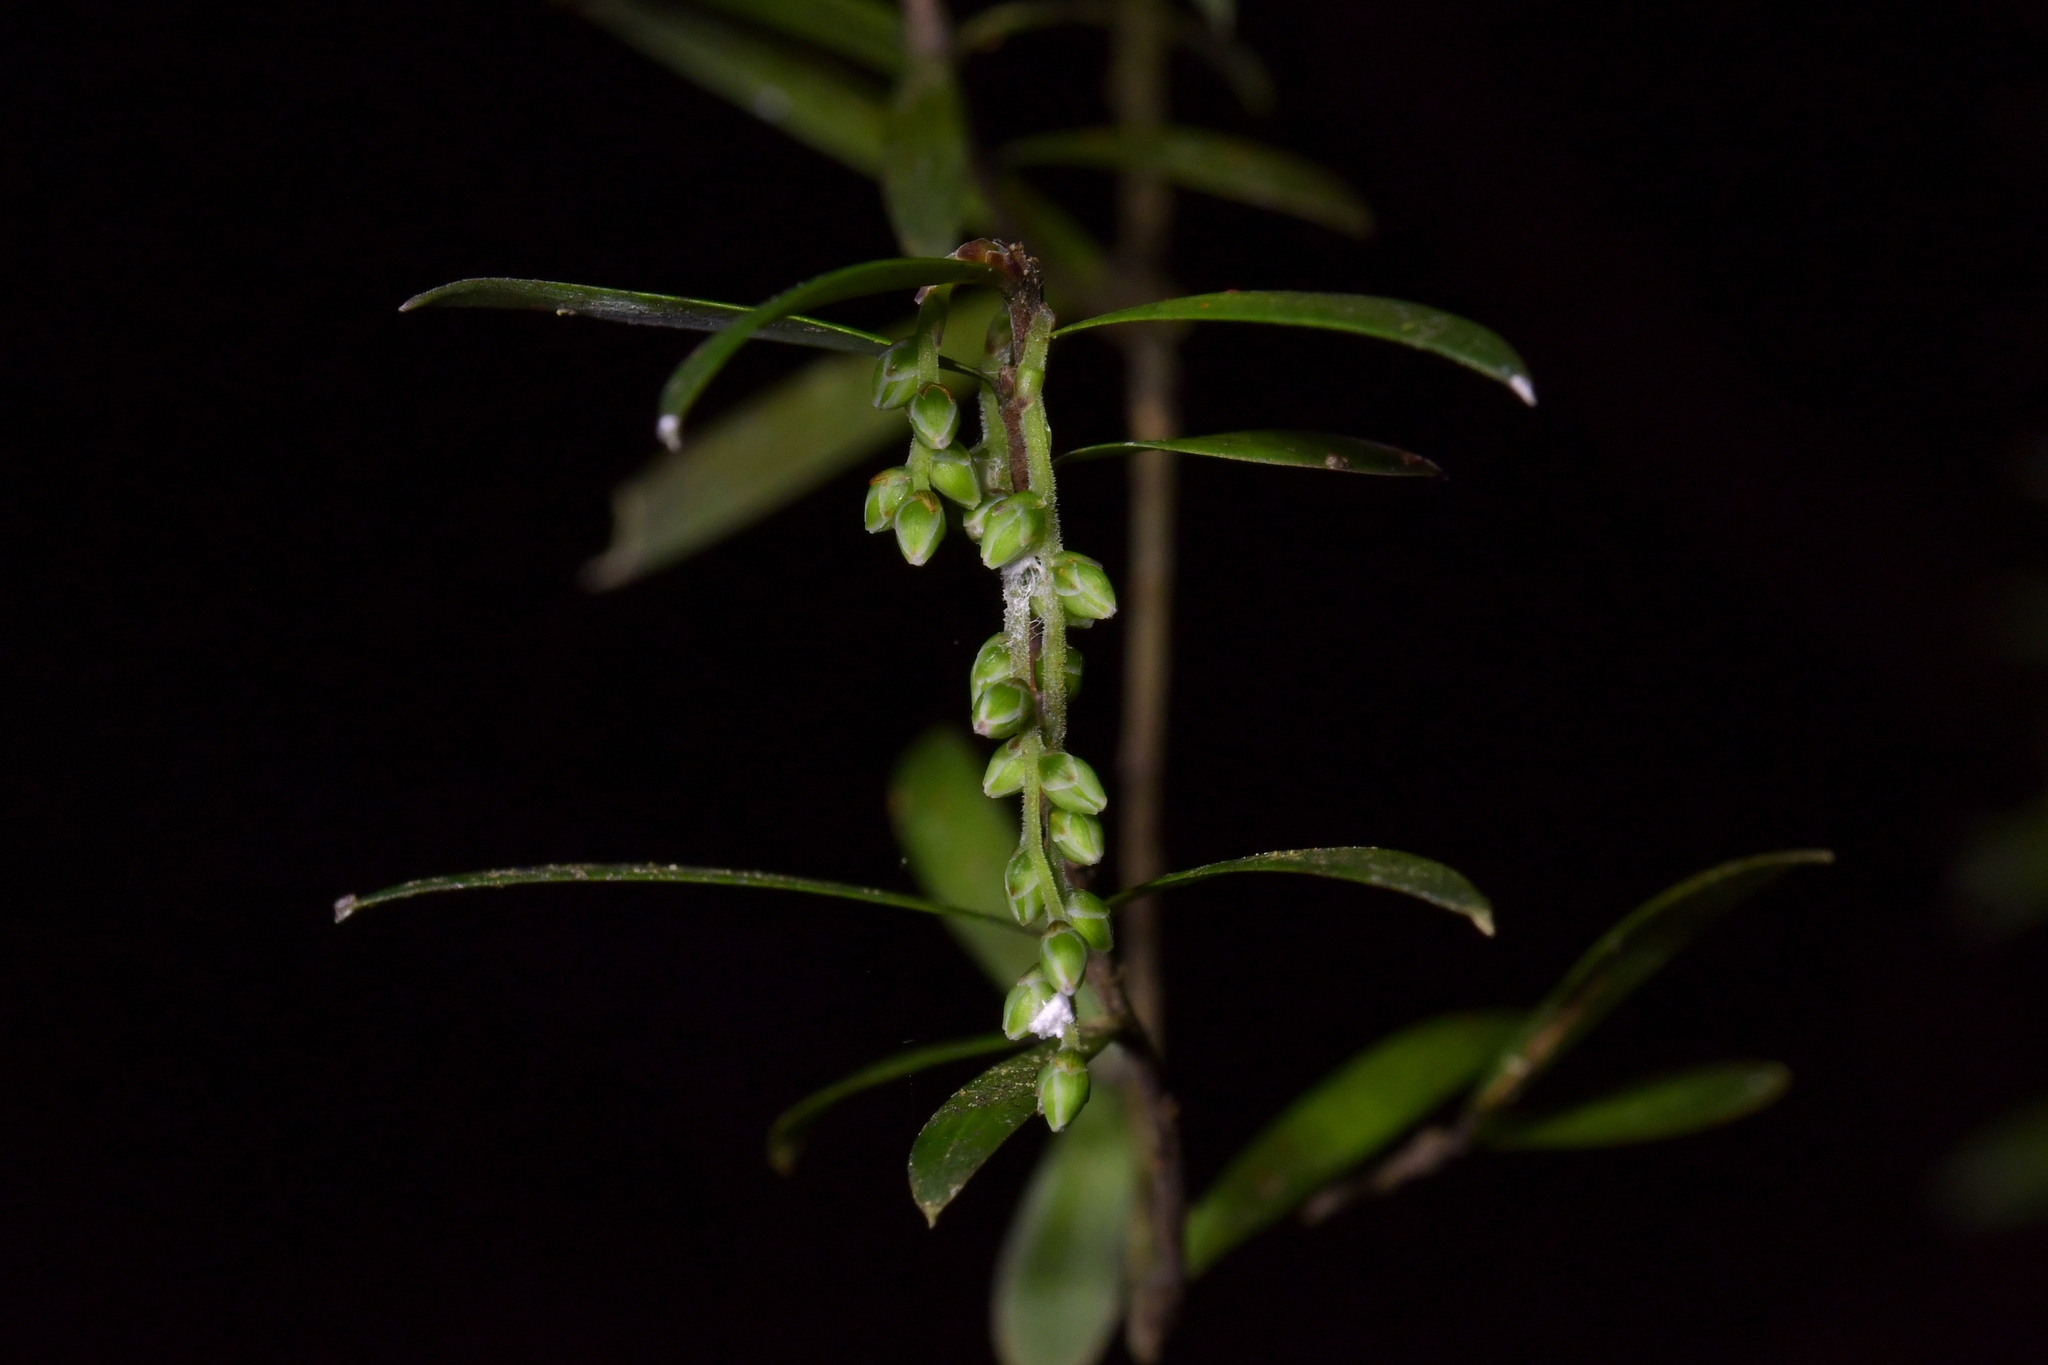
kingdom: Plantae
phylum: Tracheophyta
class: Magnoliopsida
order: Ericales
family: Ericaceae
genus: Leucopogon
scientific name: Leucopogon fasciculatus
